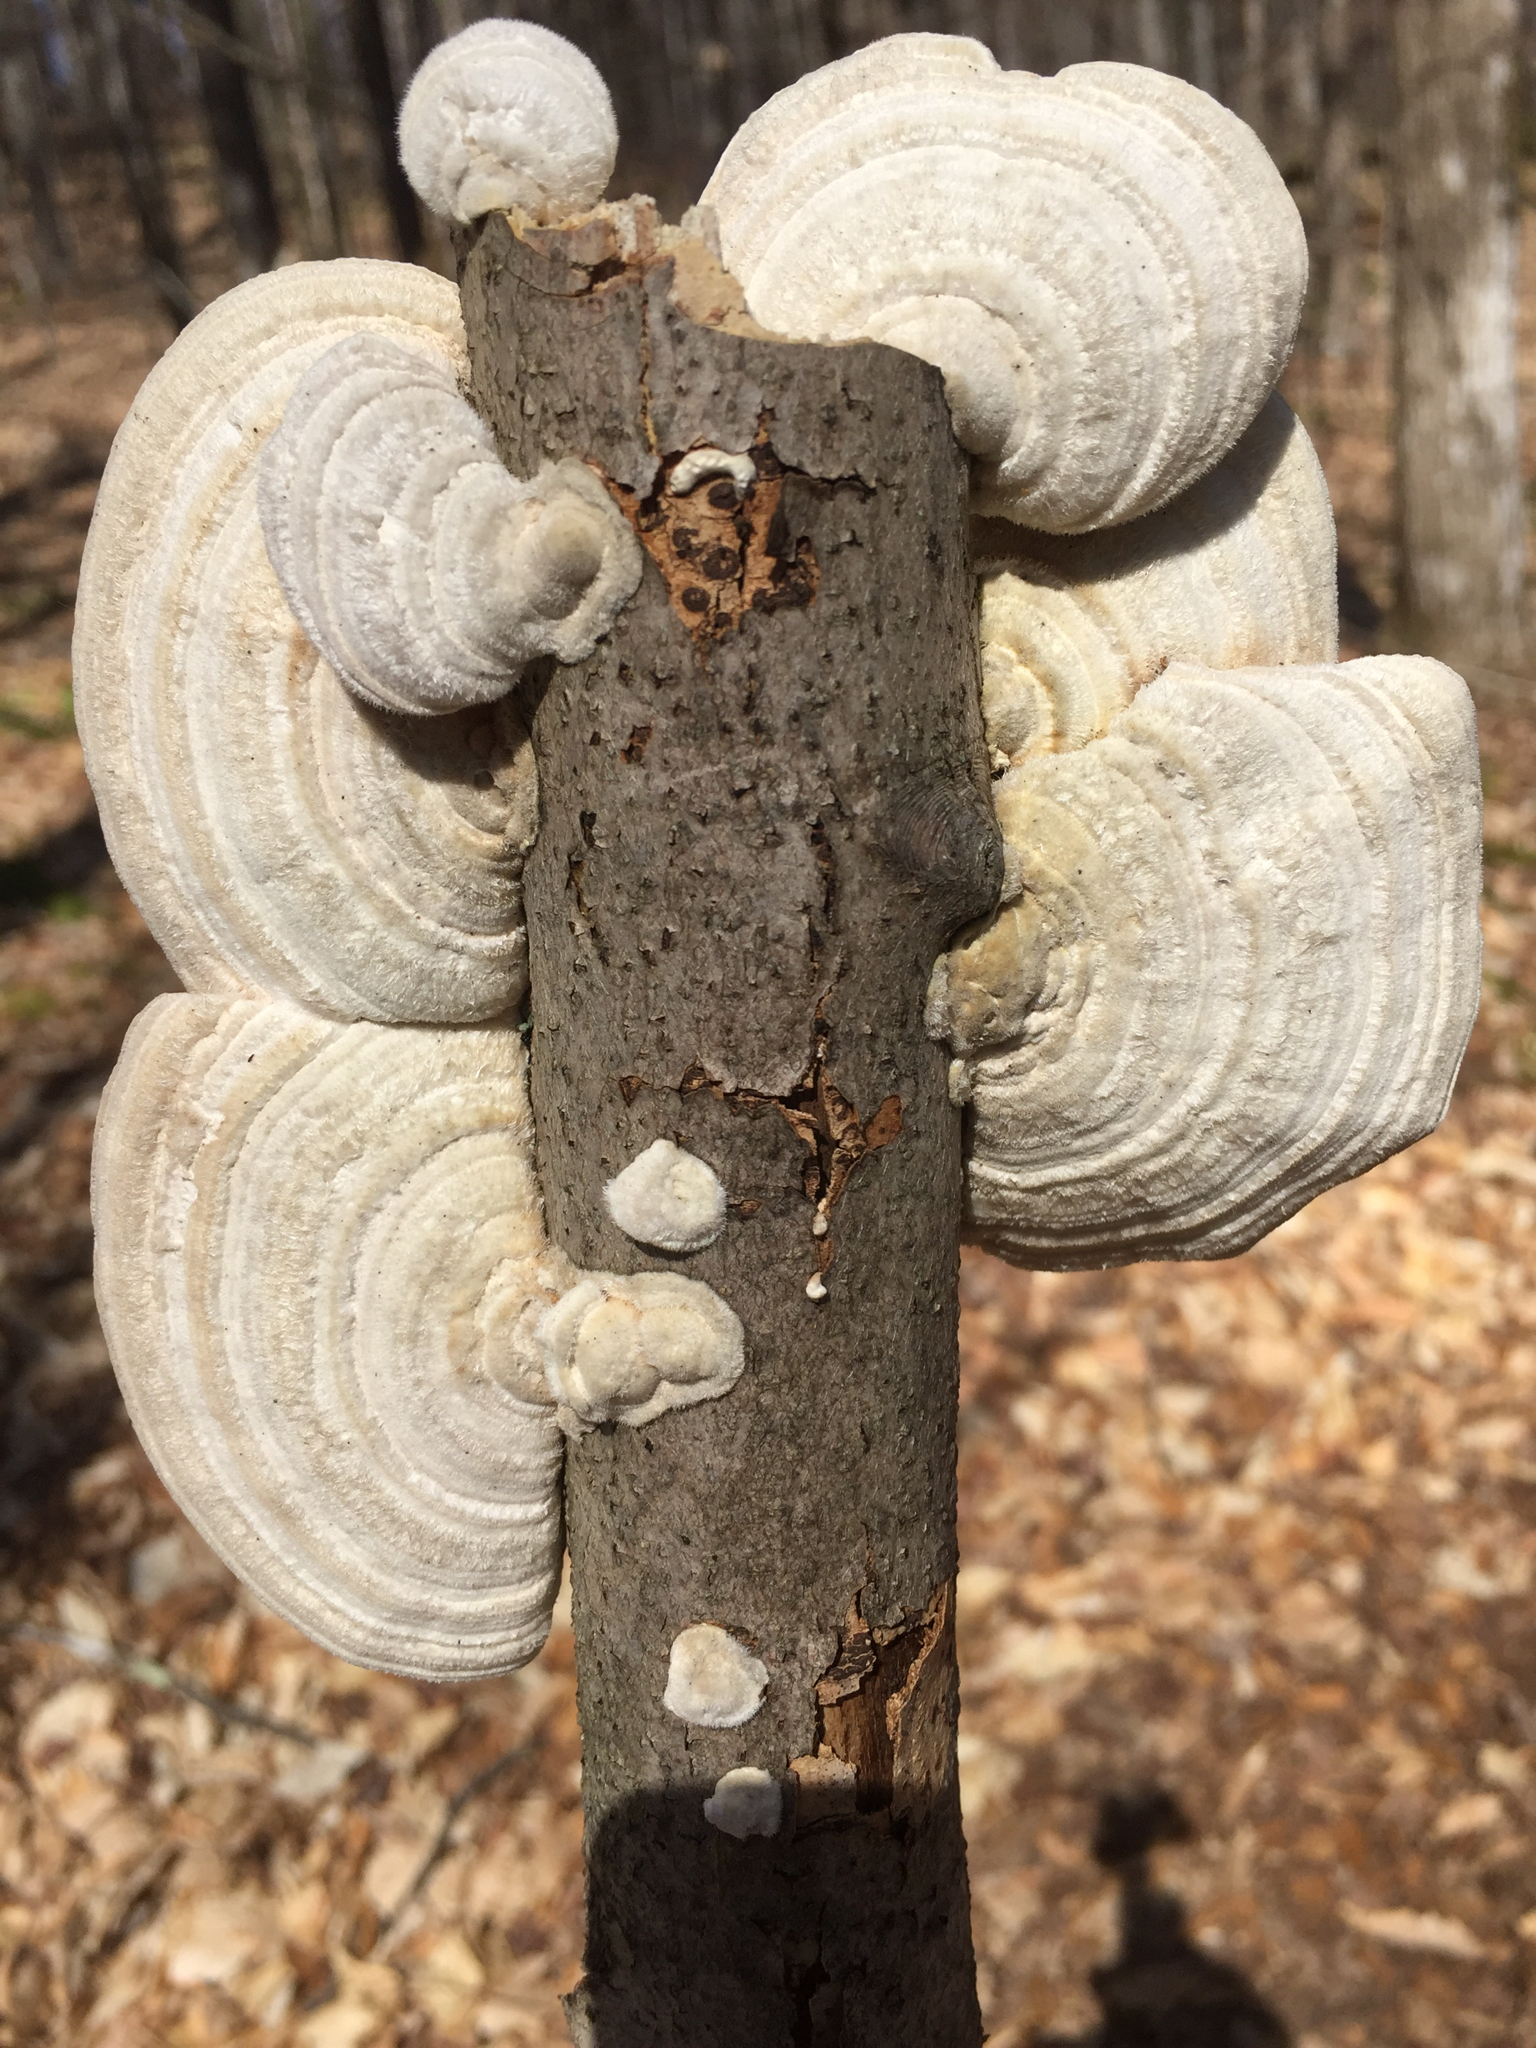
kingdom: Fungi
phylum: Basidiomycota
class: Agaricomycetes
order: Polyporales
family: Polyporaceae
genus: Lenzites
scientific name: Lenzites betulinus
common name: Birch mazegill
